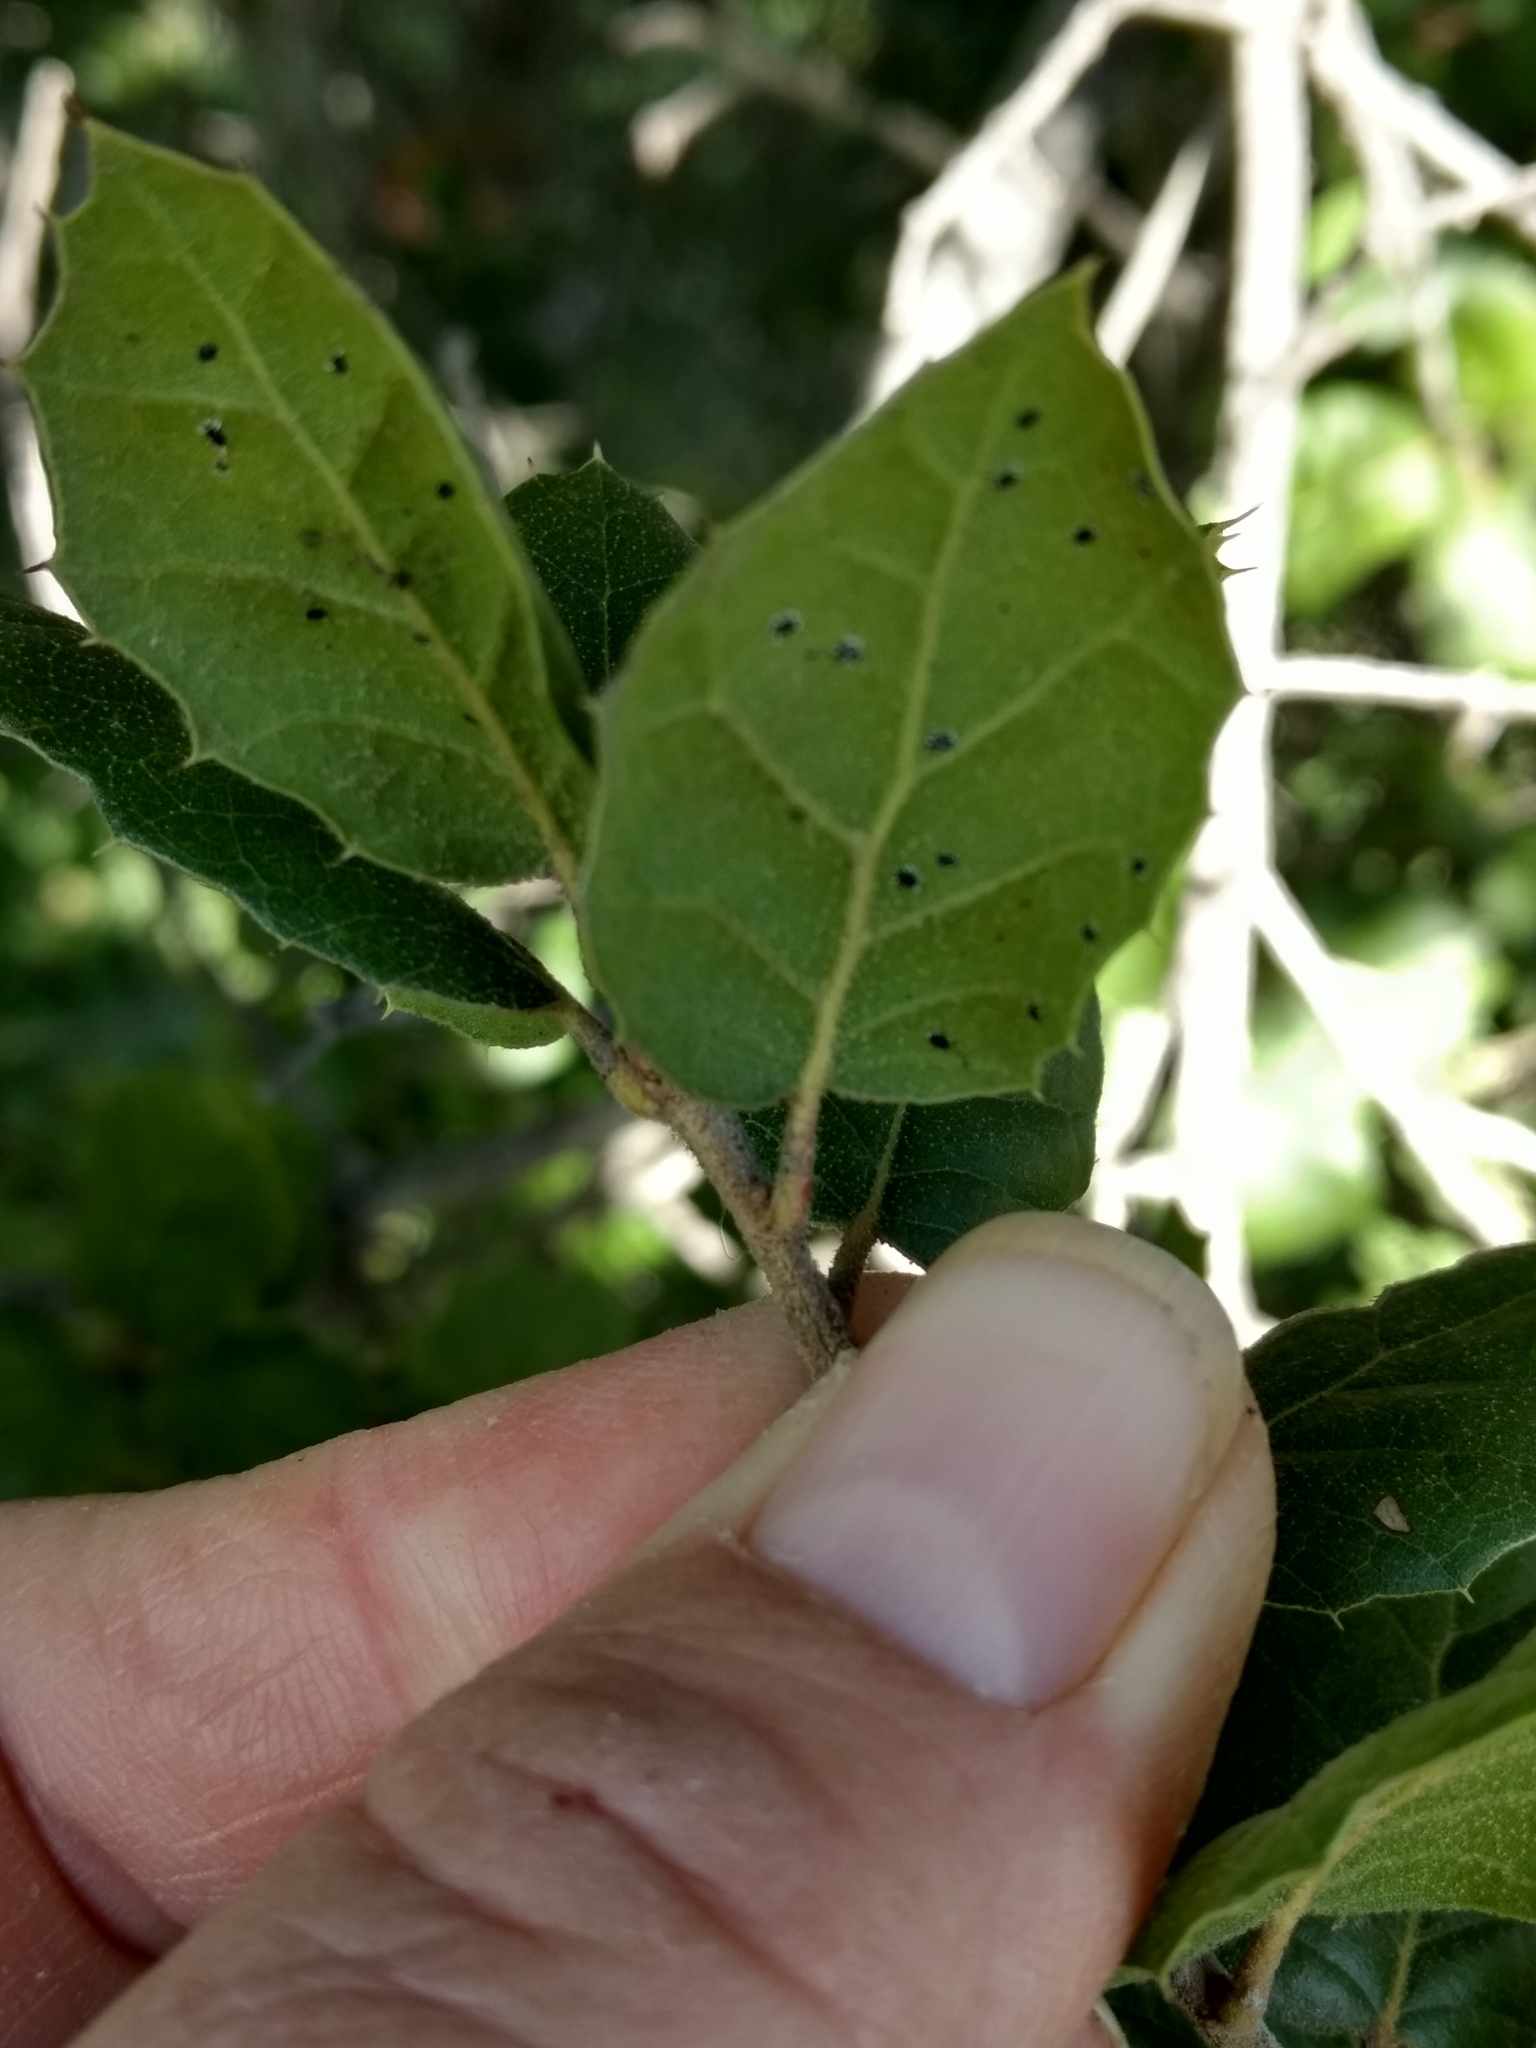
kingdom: Animalia
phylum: Arthropoda
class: Insecta
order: Hemiptera
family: Aleyrodidae
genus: Aleuroplatus
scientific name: Aleuroplatus coronata
